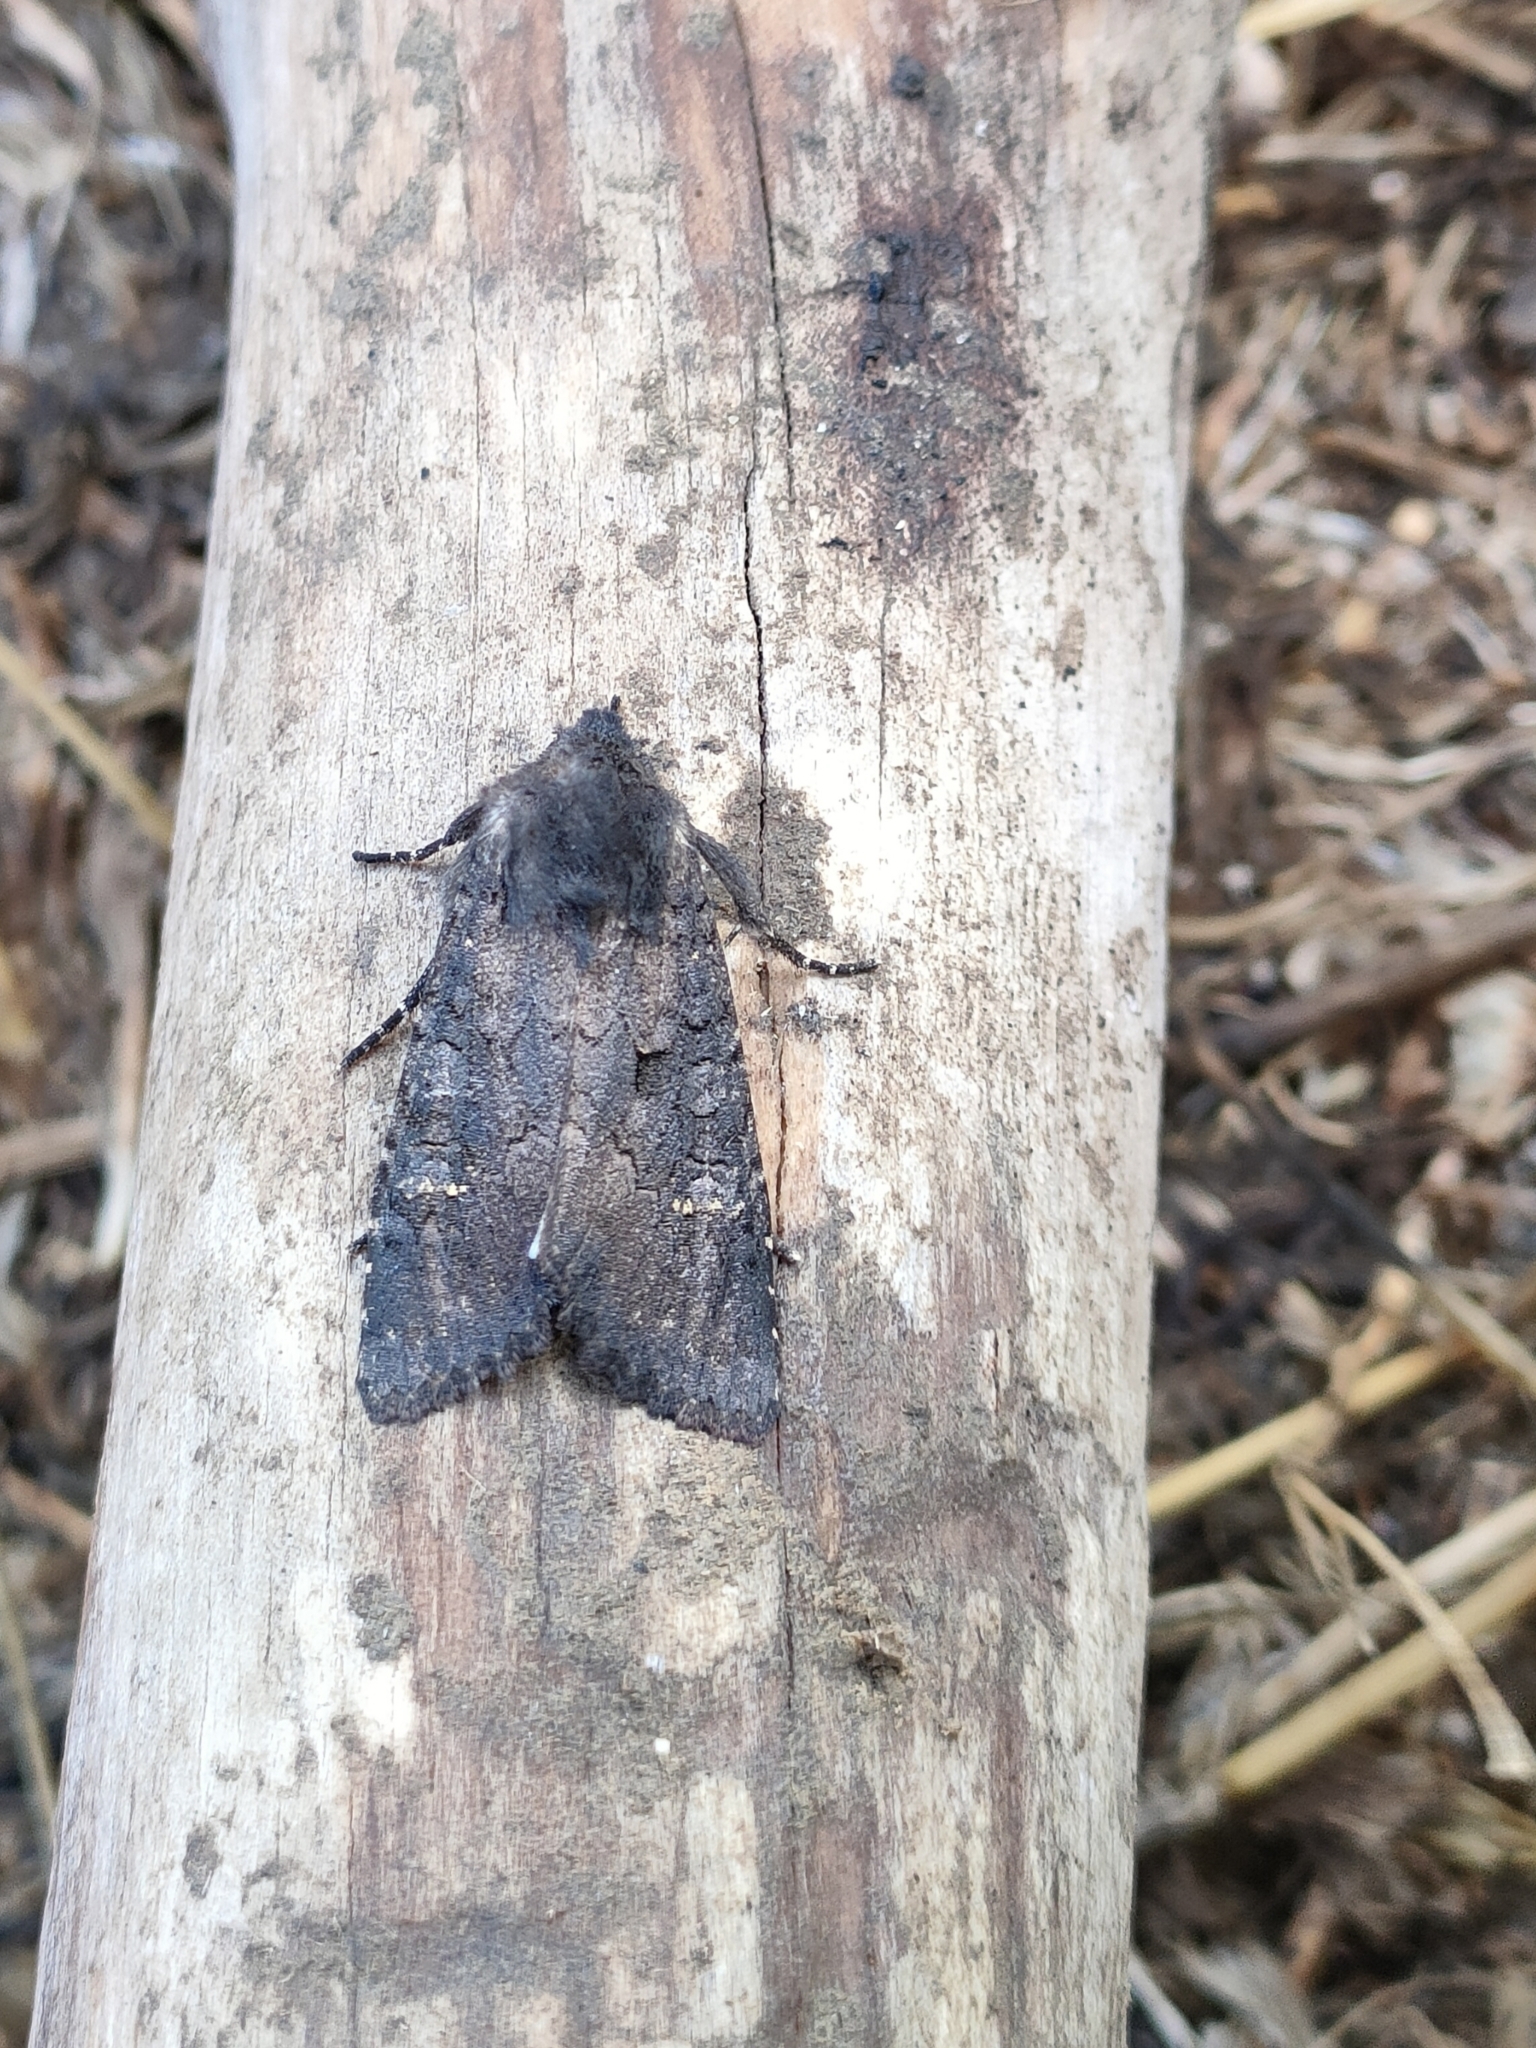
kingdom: Animalia
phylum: Arthropoda
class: Insecta
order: Lepidoptera
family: Noctuidae
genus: Aporophyla
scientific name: Aporophyla nigra
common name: Black rustic
